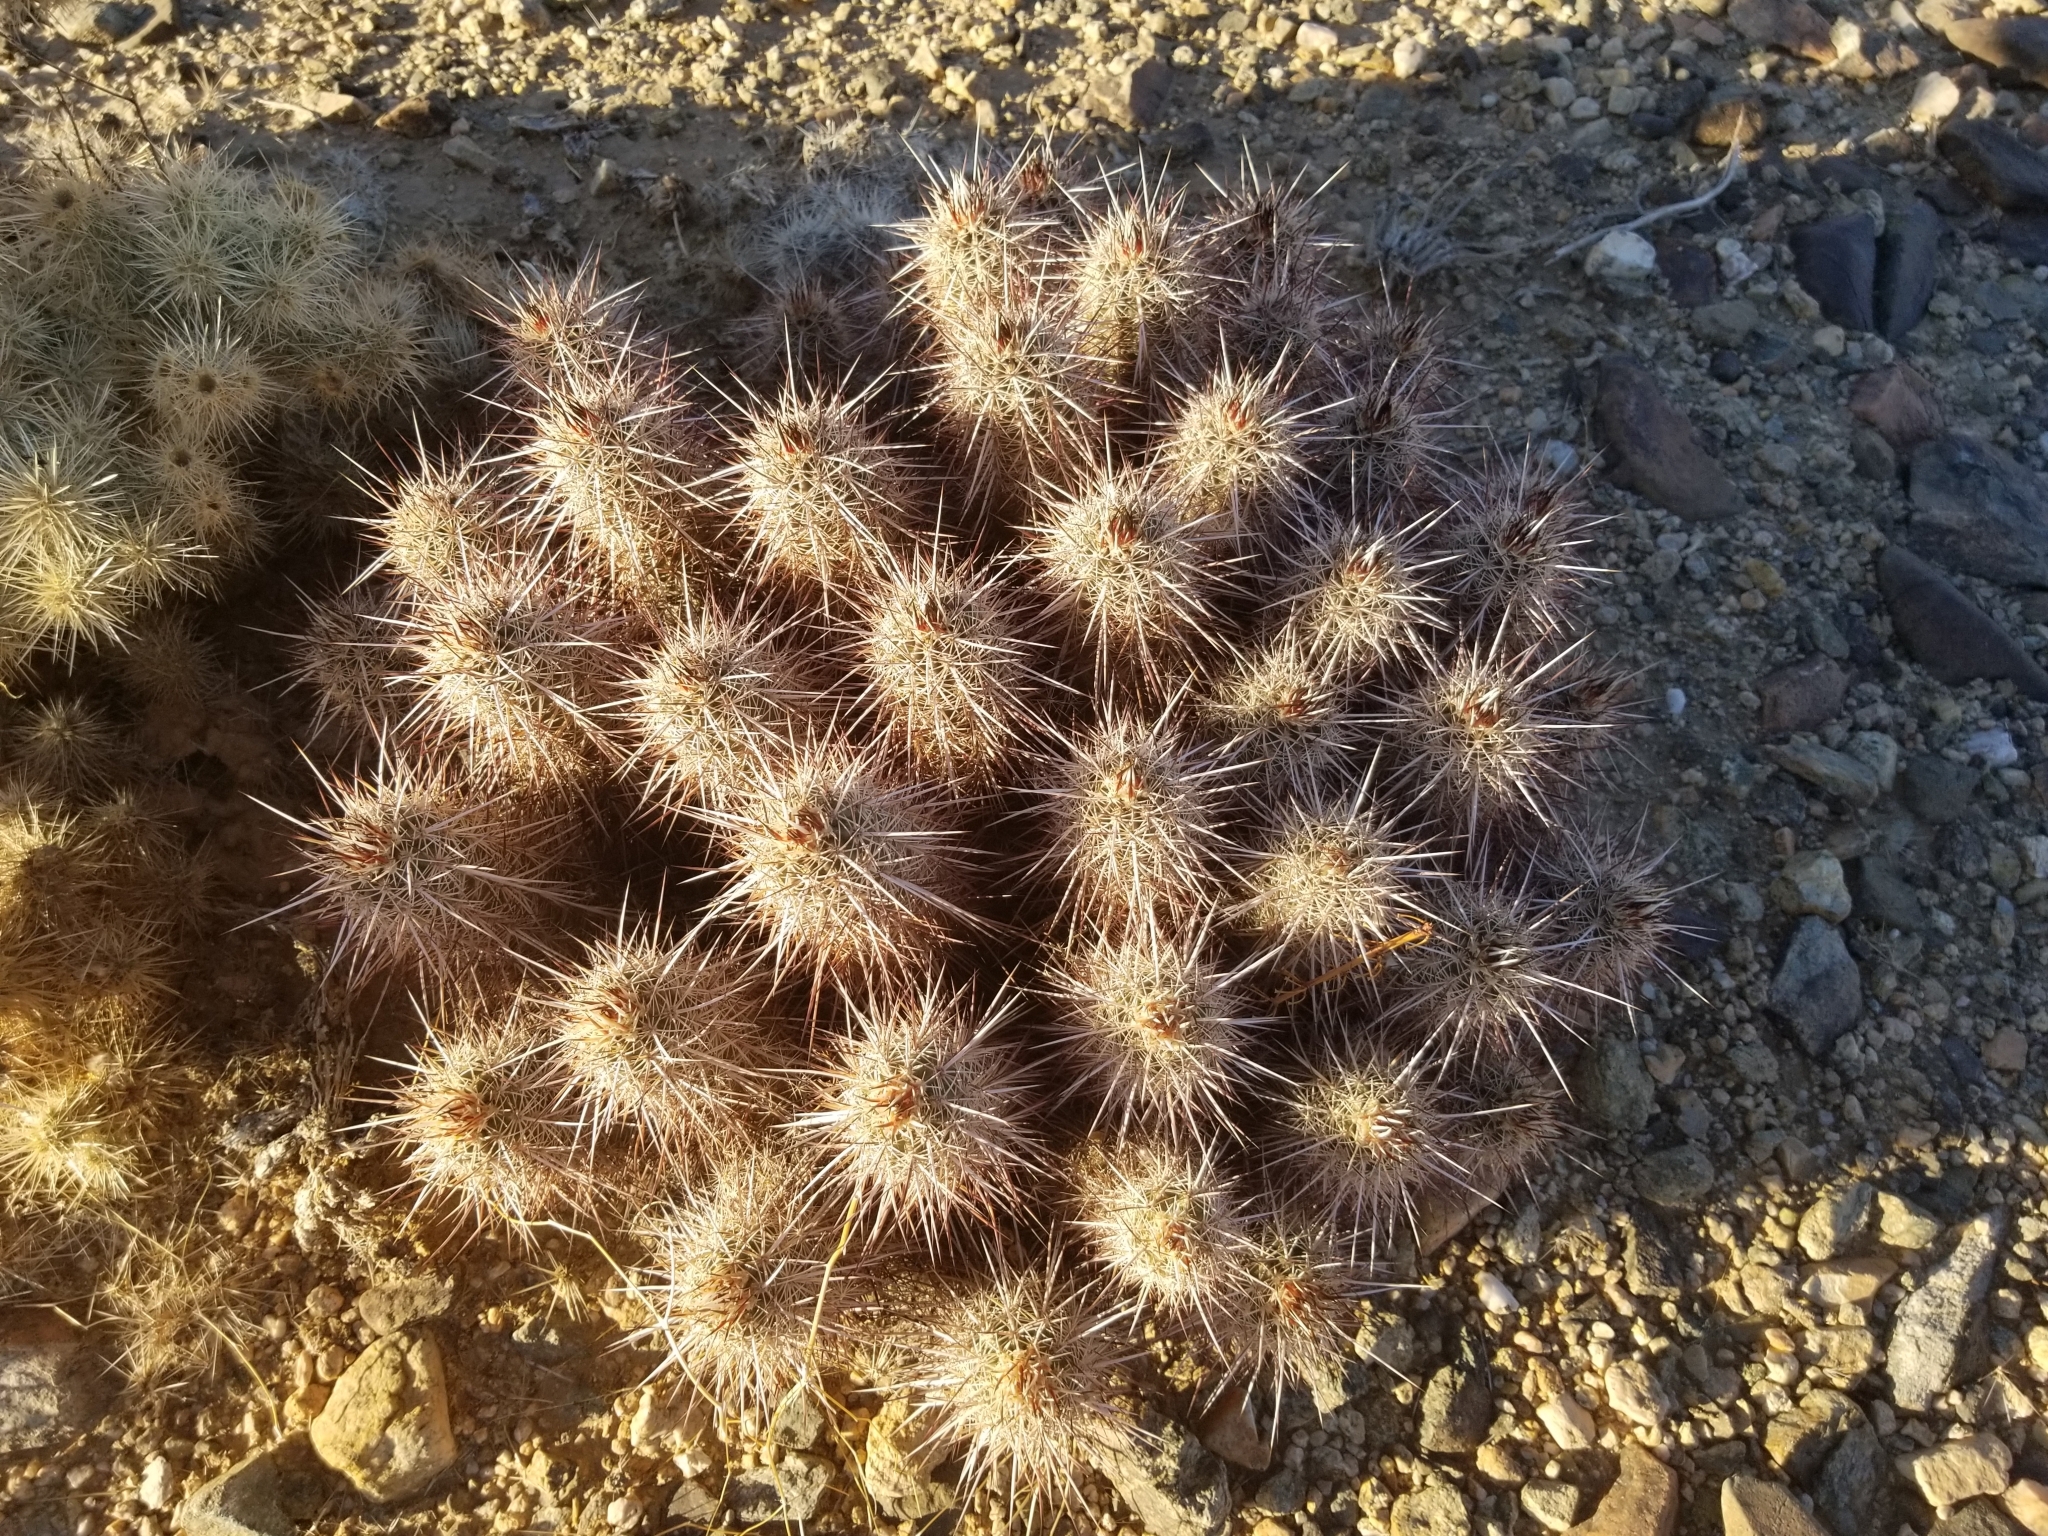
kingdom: Plantae
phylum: Tracheophyta
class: Magnoliopsida
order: Caryophyllales
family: Cactaceae
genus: Echinocereus
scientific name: Echinocereus engelmannii
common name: Engelmann's hedgehog cactus
